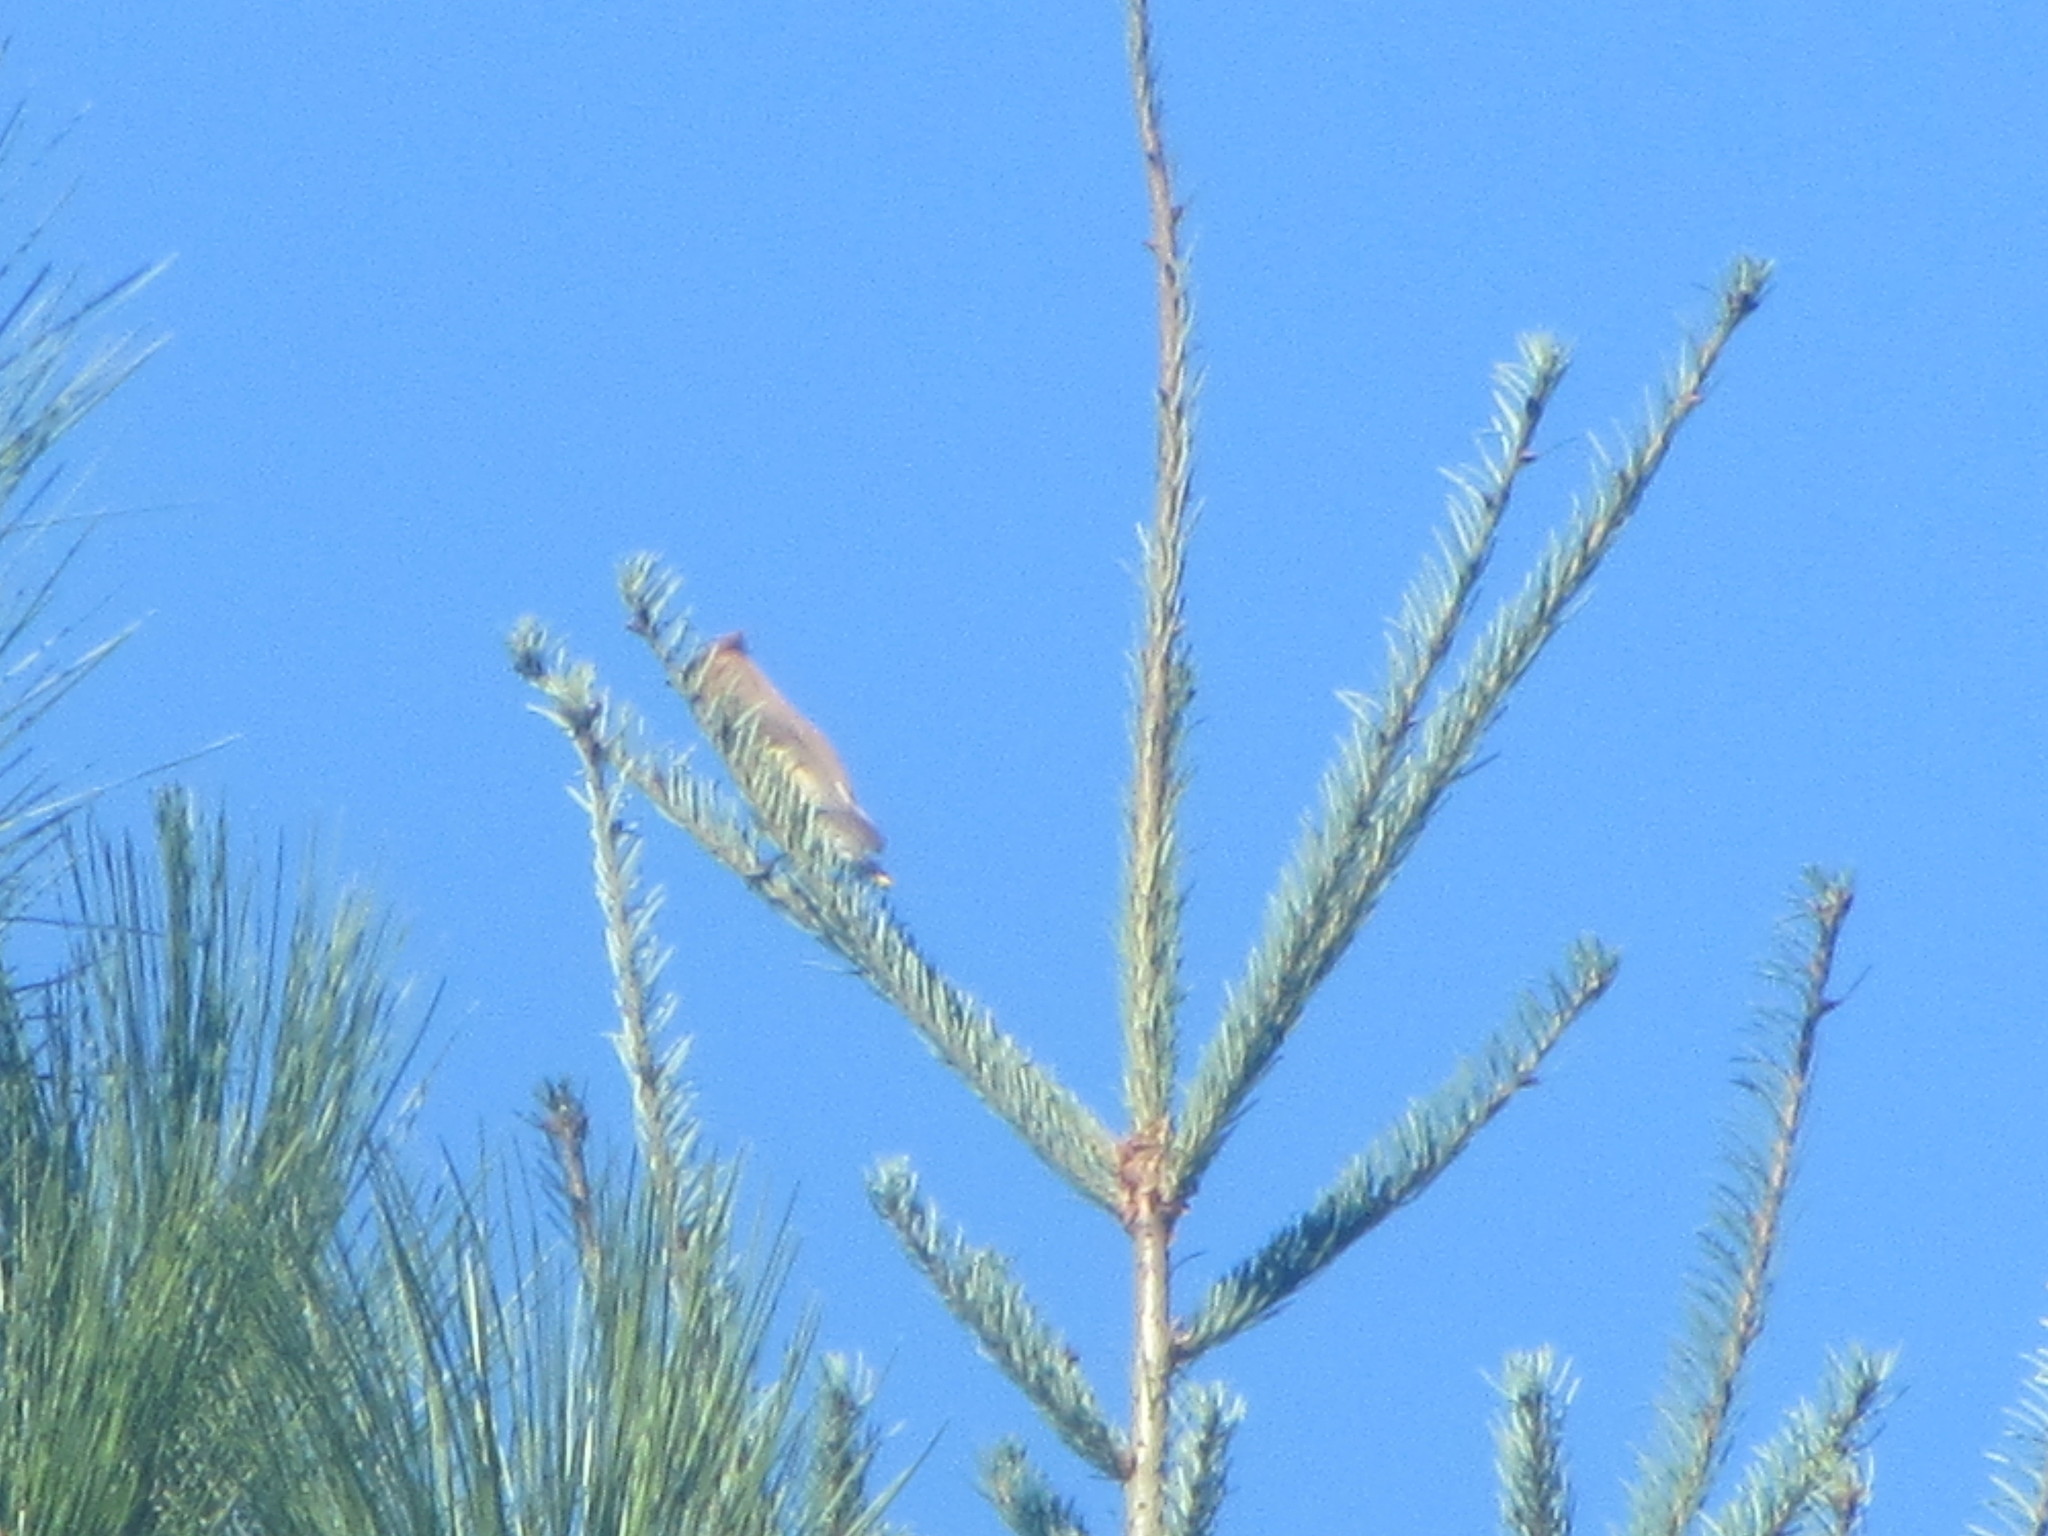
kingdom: Animalia
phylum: Chordata
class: Aves
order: Passeriformes
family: Bombycillidae
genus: Bombycilla
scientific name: Bombycilla cedrorum
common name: Cedar waxwing
